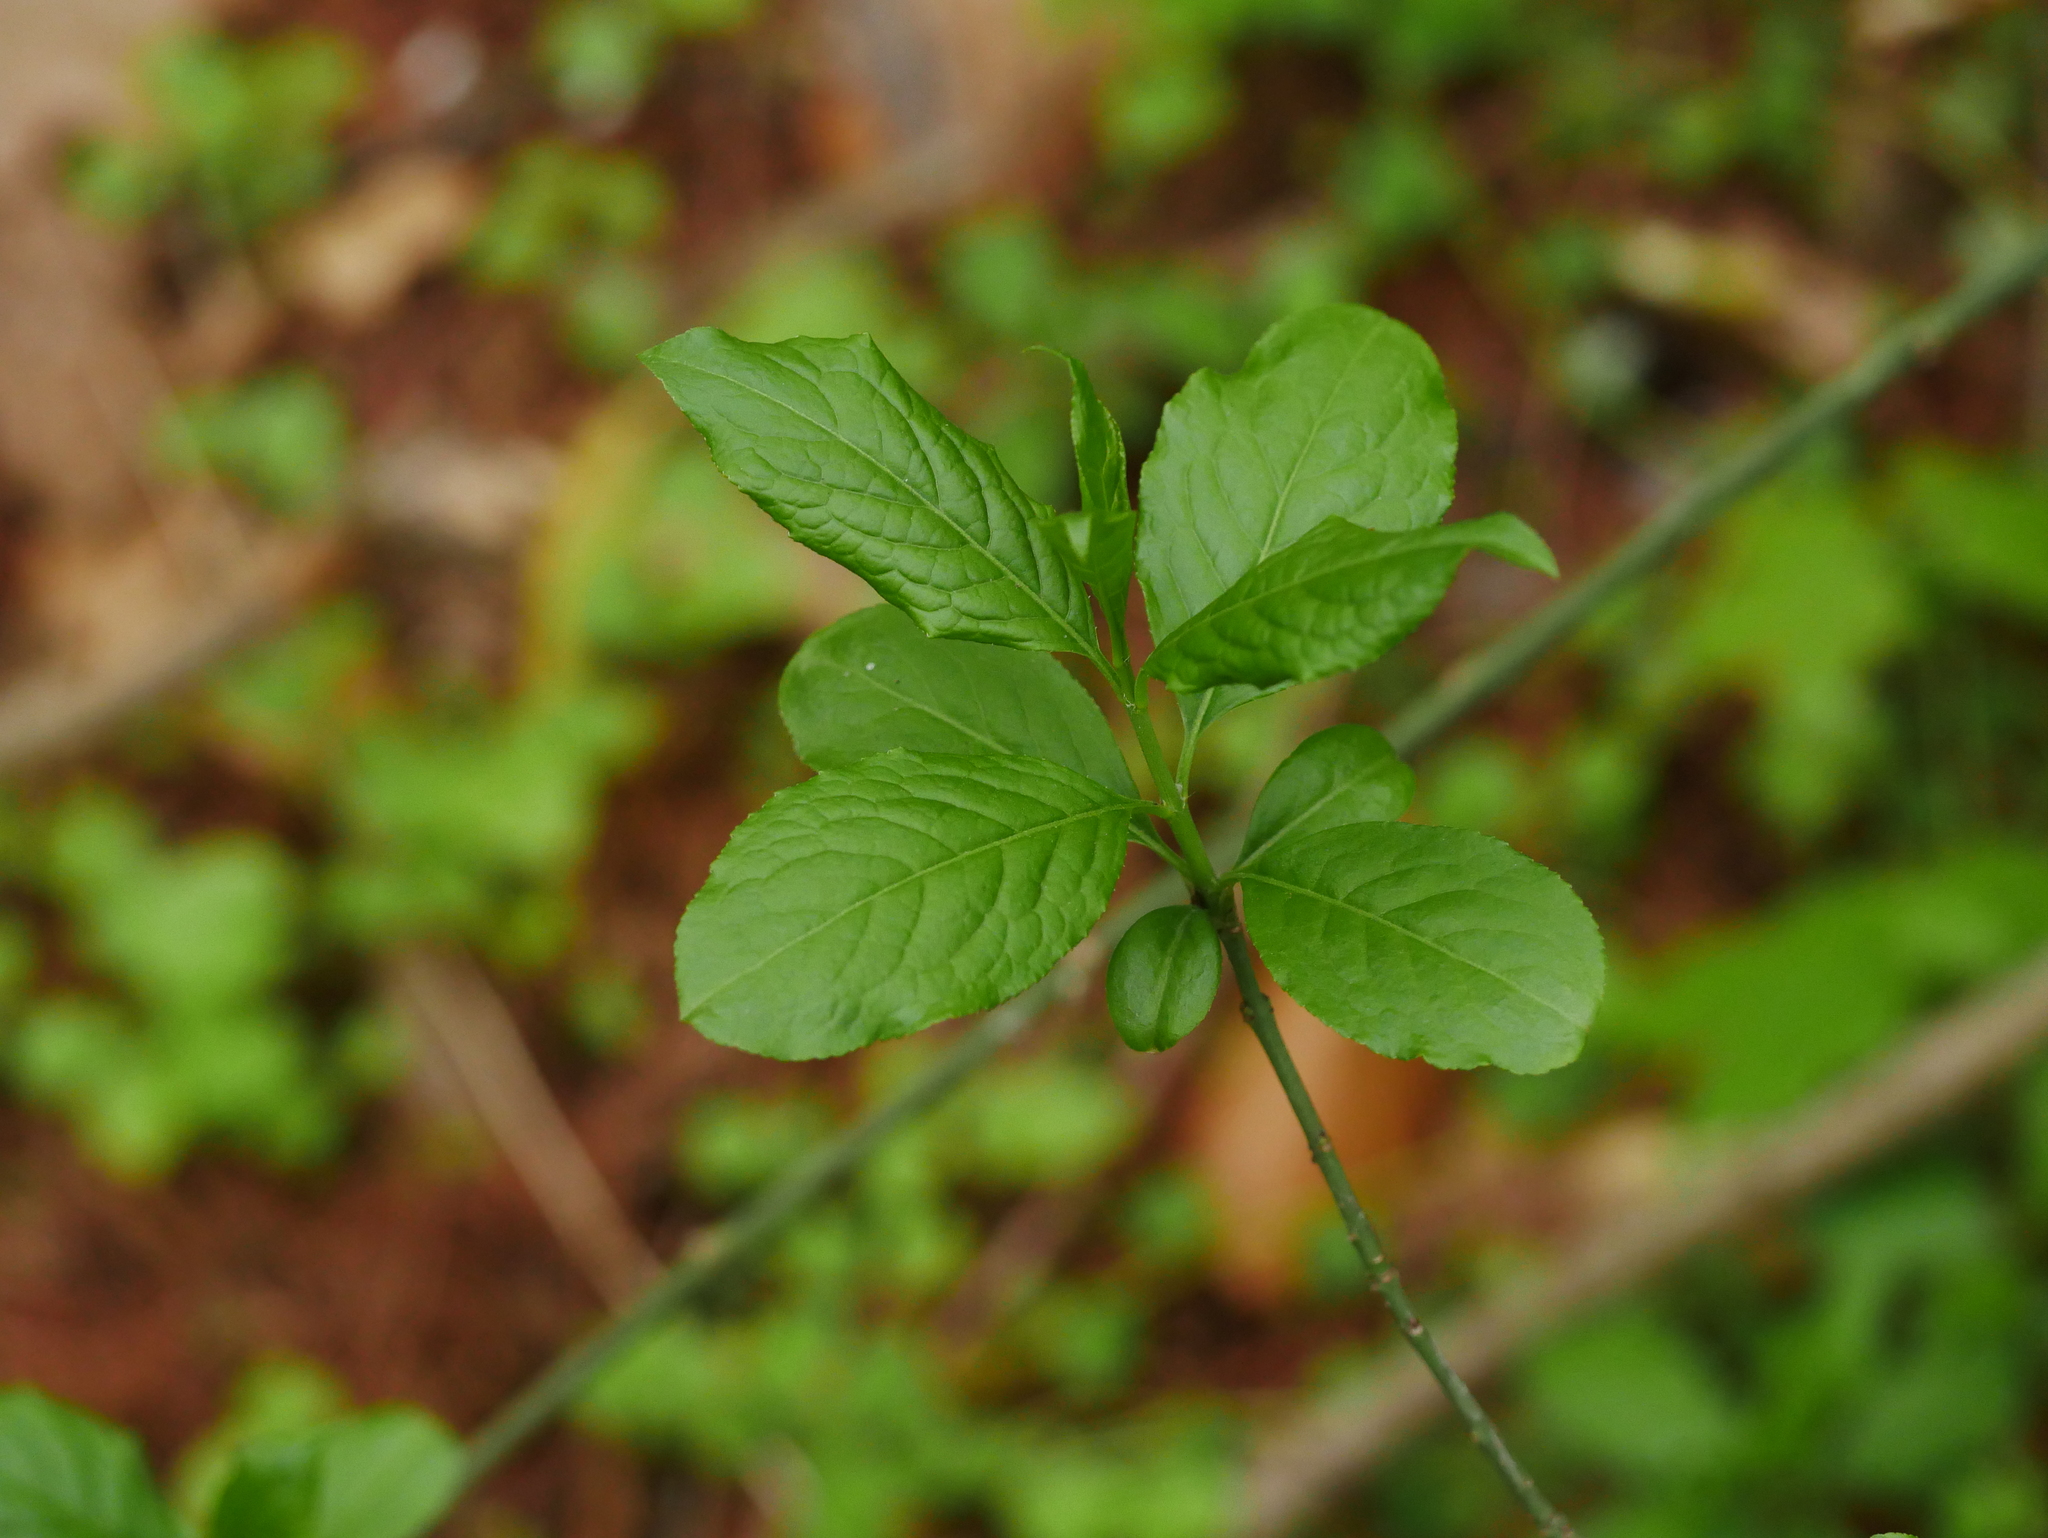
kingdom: Plantae
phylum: Tracheophyta
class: Magnoliopsida
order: Celastrales
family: Celastraceae
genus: Euonymus
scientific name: Euonymus europaeus
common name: Spindle
